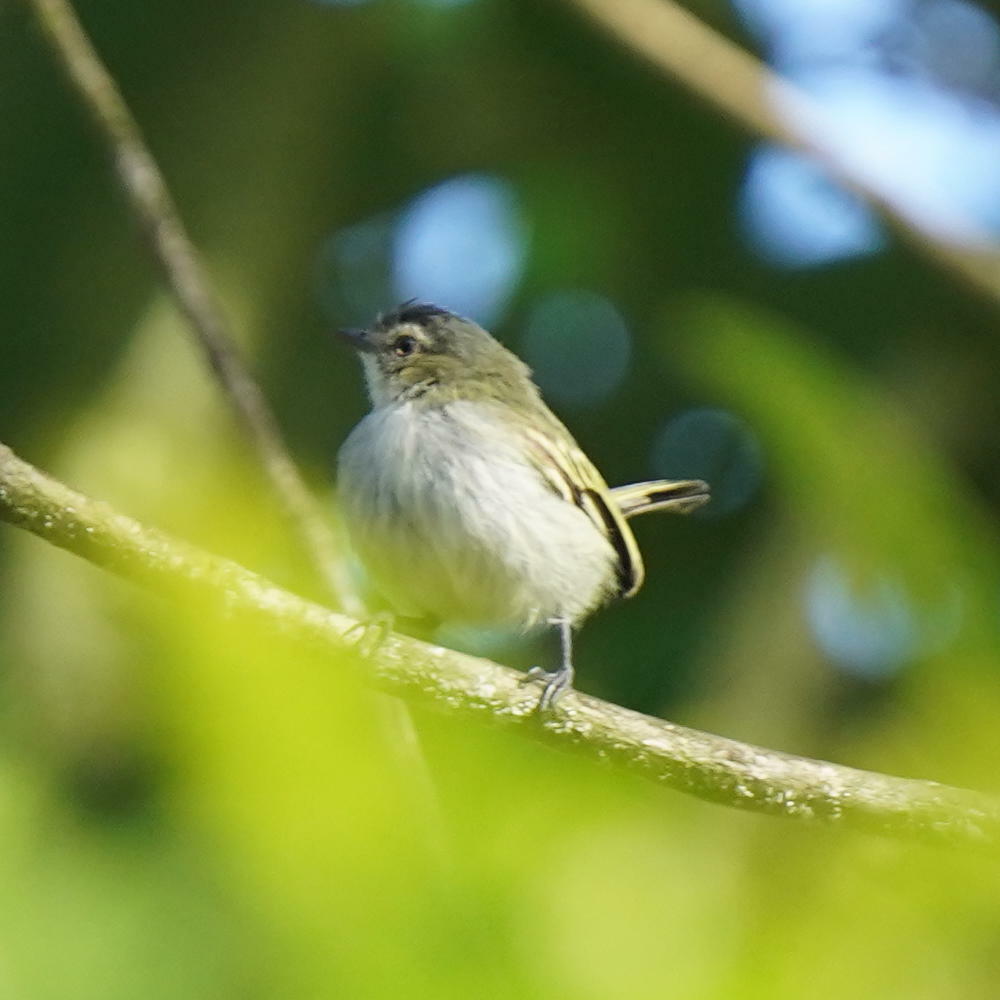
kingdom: Animalia
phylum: Chordata
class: Aves
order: Passeriformes
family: Tyrannidae
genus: Zimmerius
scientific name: Zimmerius vilissimus
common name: Paltry tyrannulet
